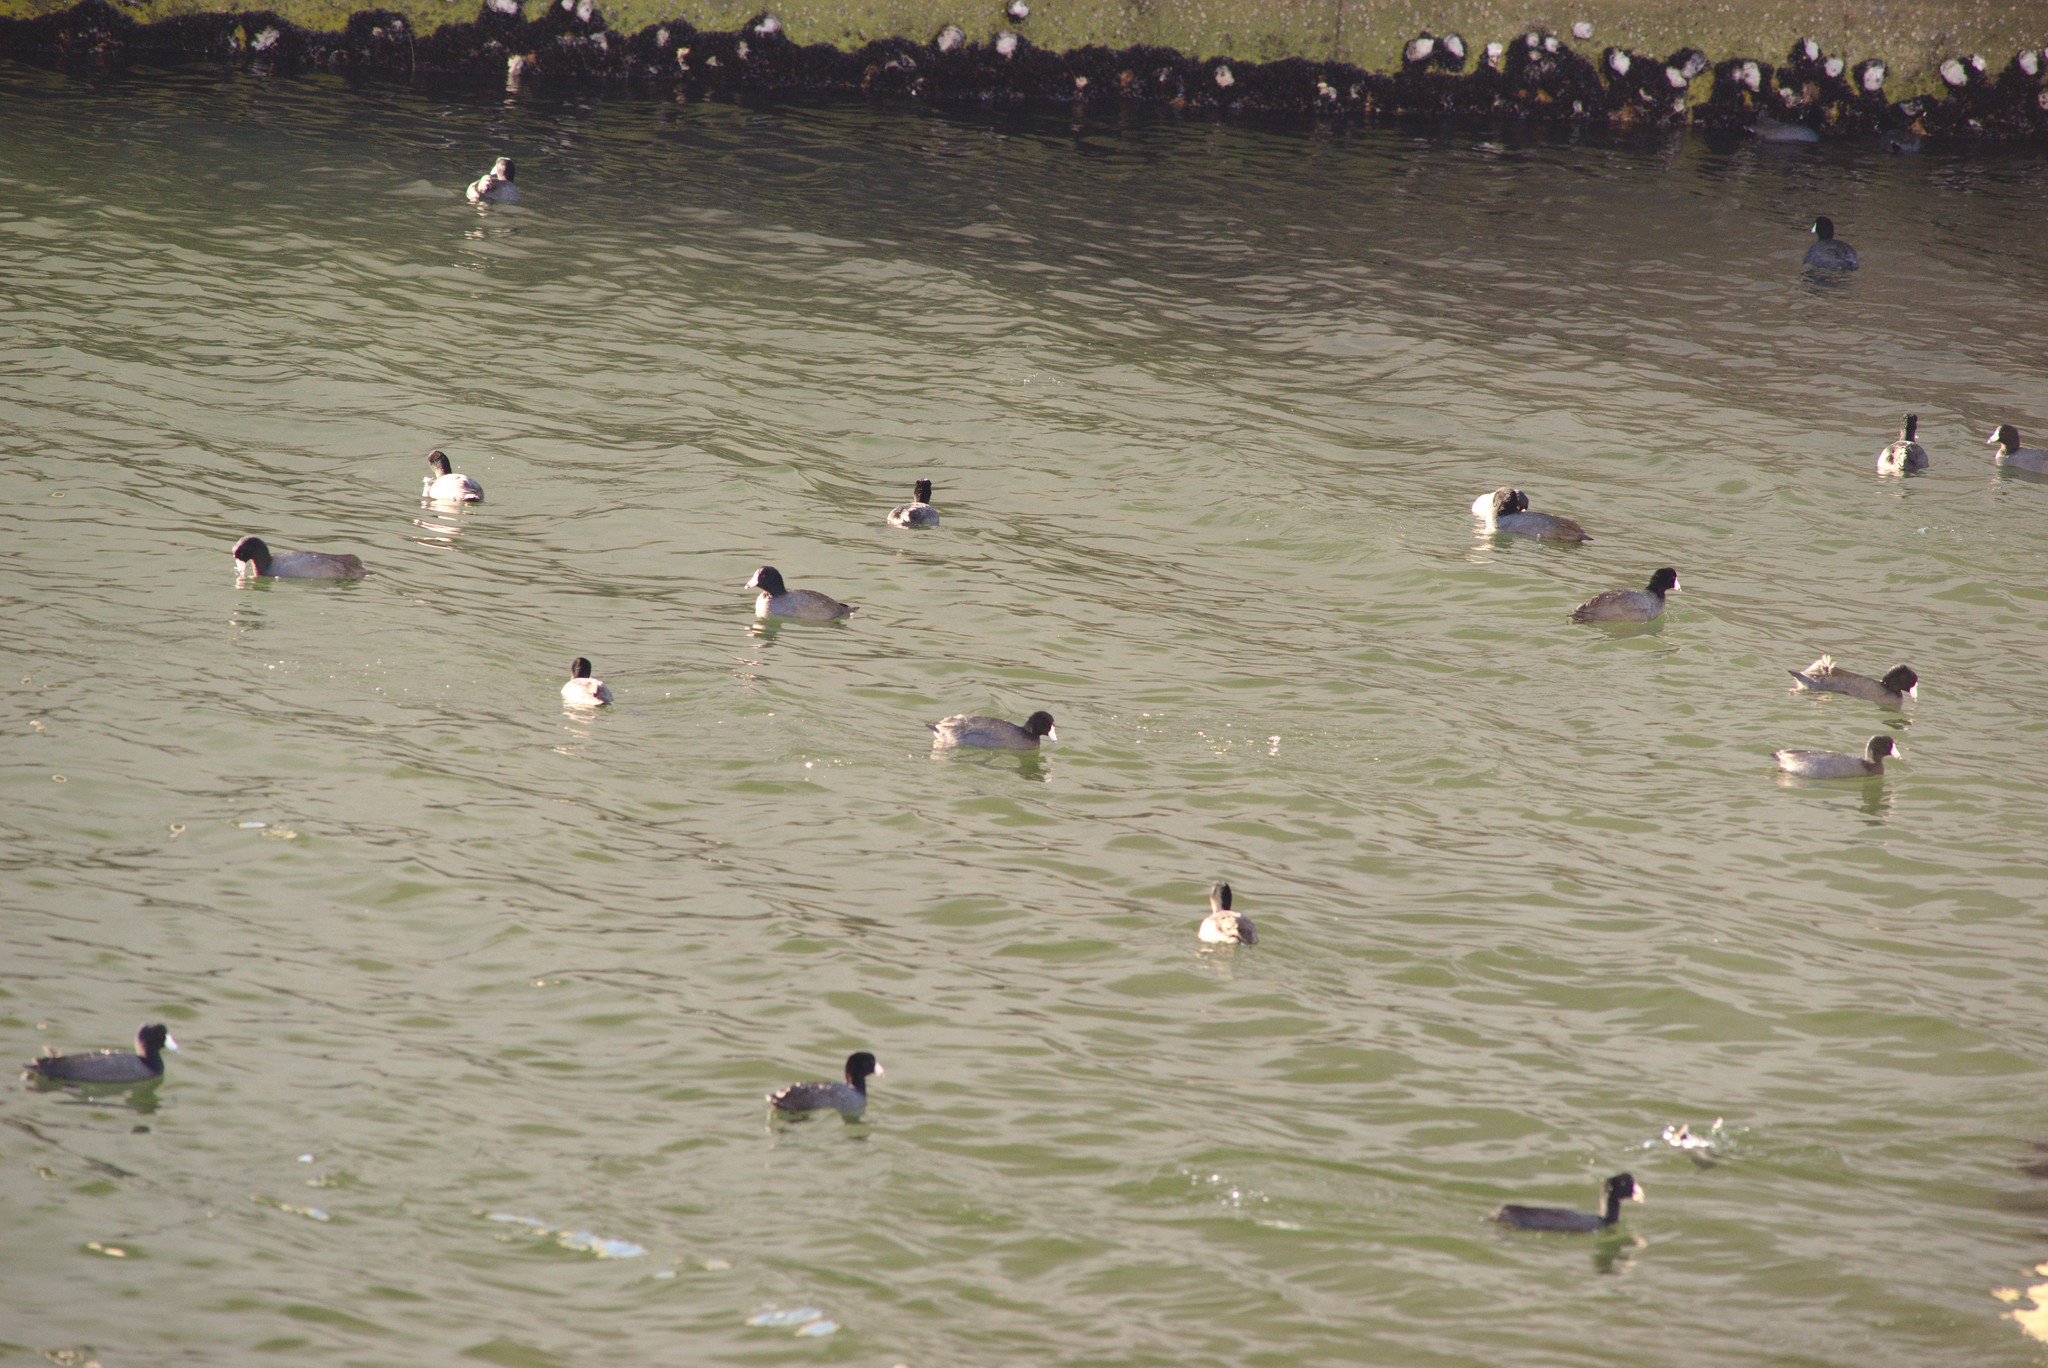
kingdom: Animalia
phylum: Chordata
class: Aves
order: Gruiformes
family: Rallidae
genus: Fulica
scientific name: Fulica americana
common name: American coot
